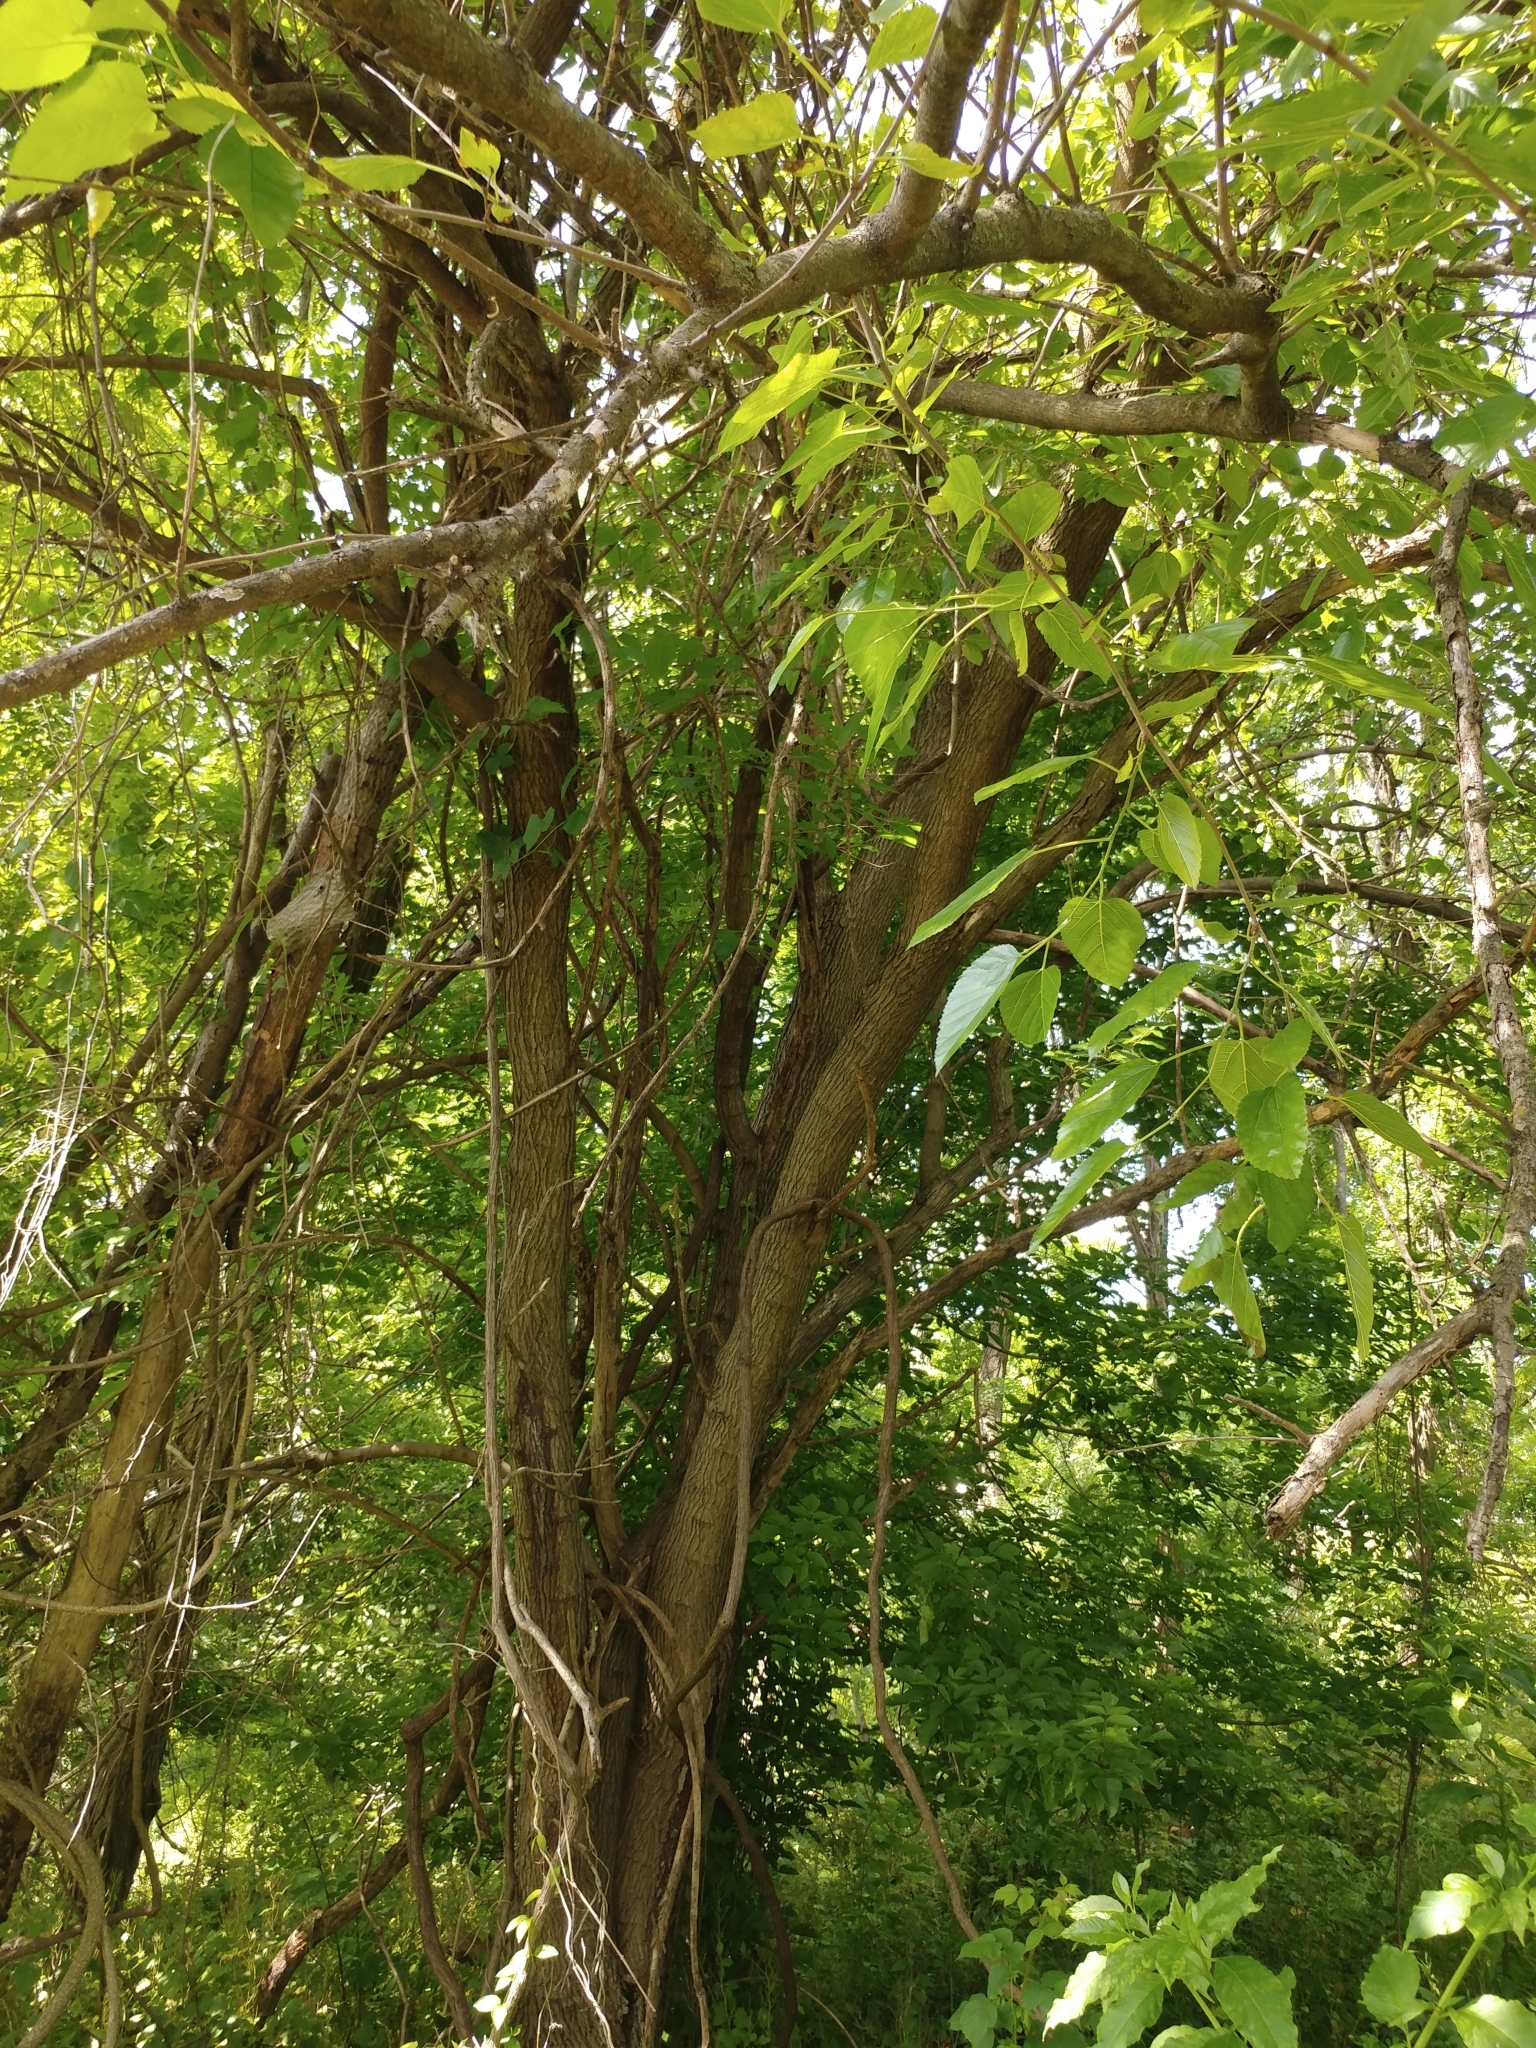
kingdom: Plantae
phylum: Tracheophyta
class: Magnoliopsida
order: Rosales
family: Moraceae
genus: Morus
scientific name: Morus alba
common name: White mulberry
